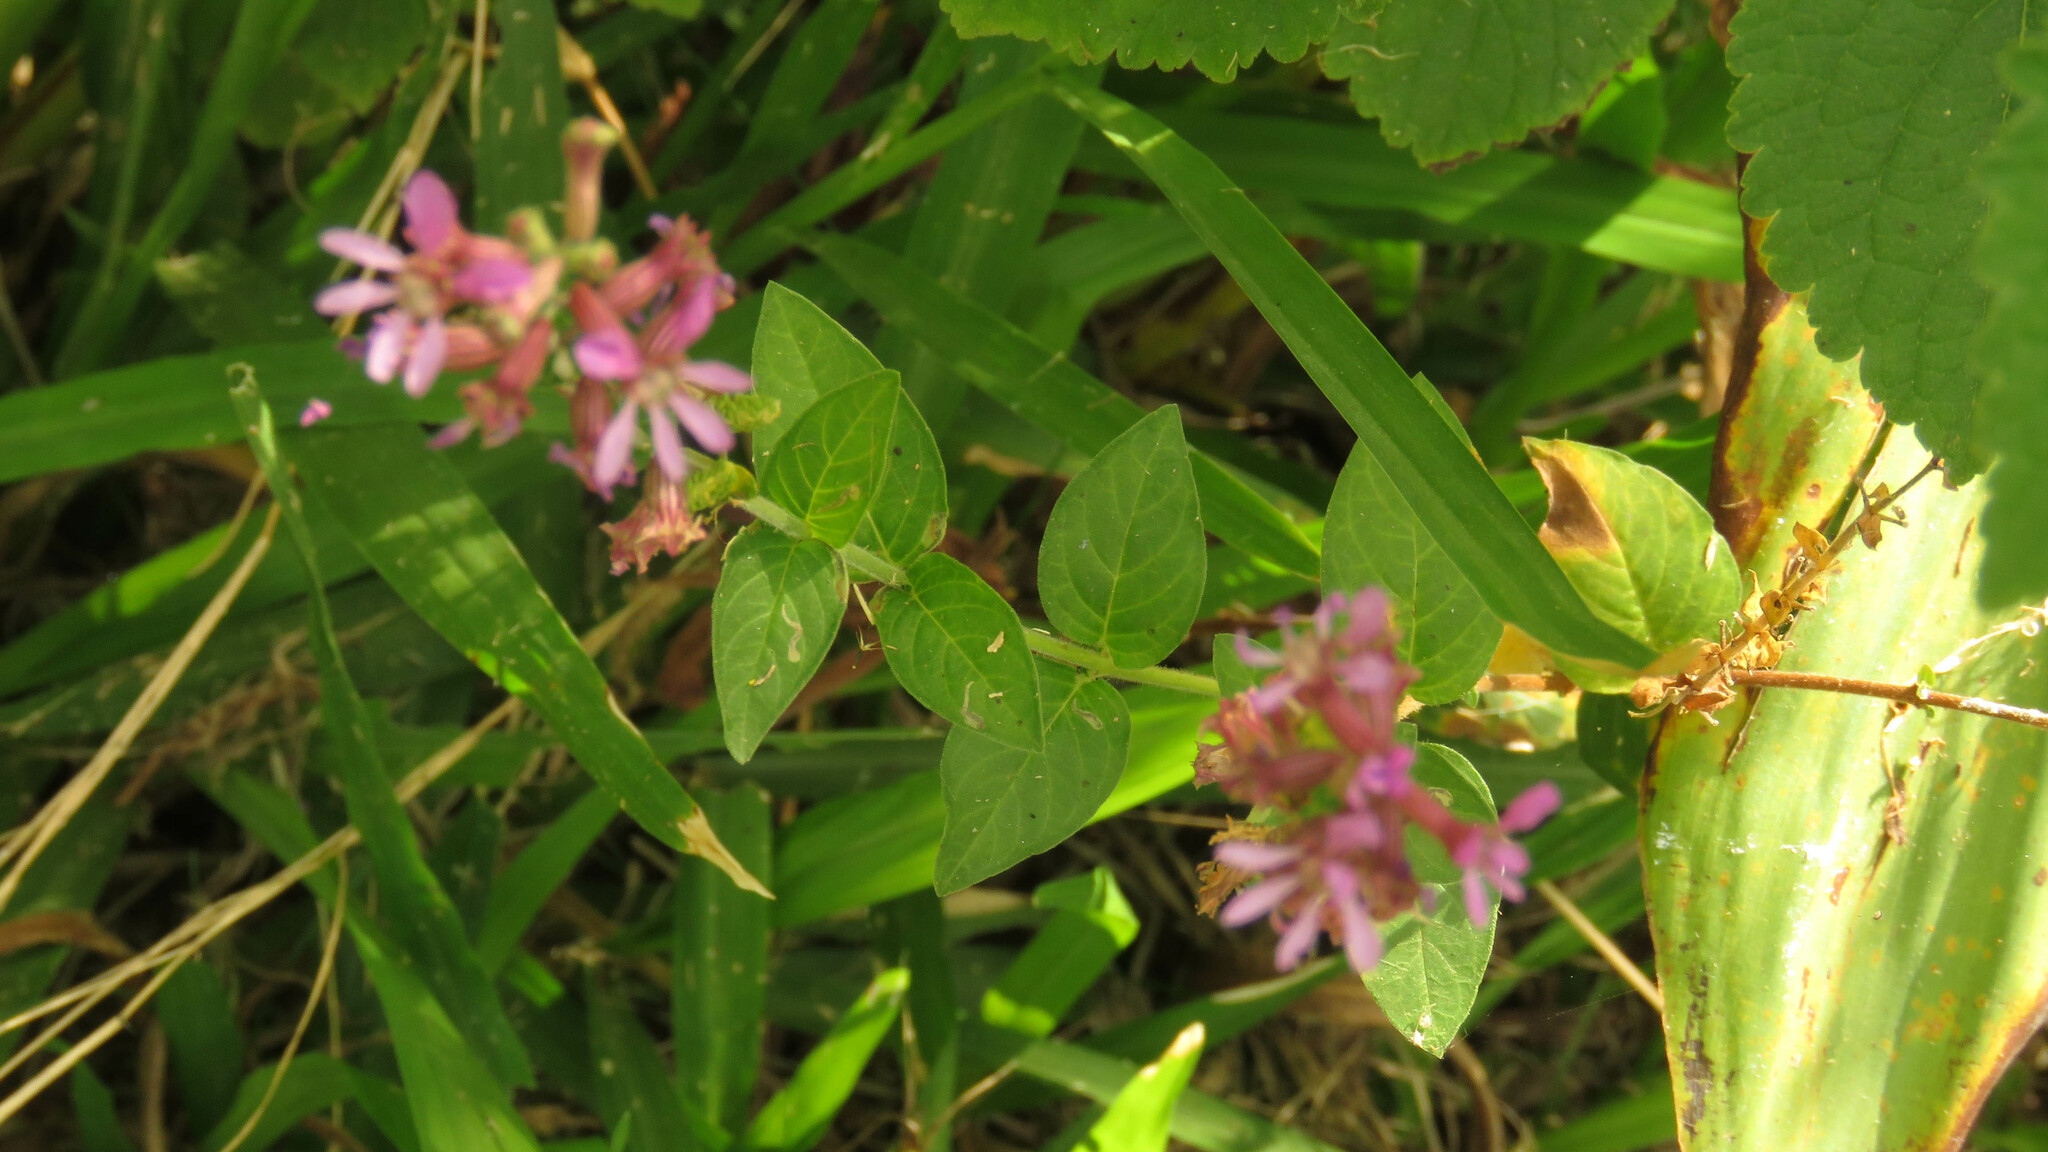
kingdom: Plantae
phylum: Tracheophyta
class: Magnoliopsida
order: Myrtales
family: Lythraceae
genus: Cuphea
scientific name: Cuphea racemosa
